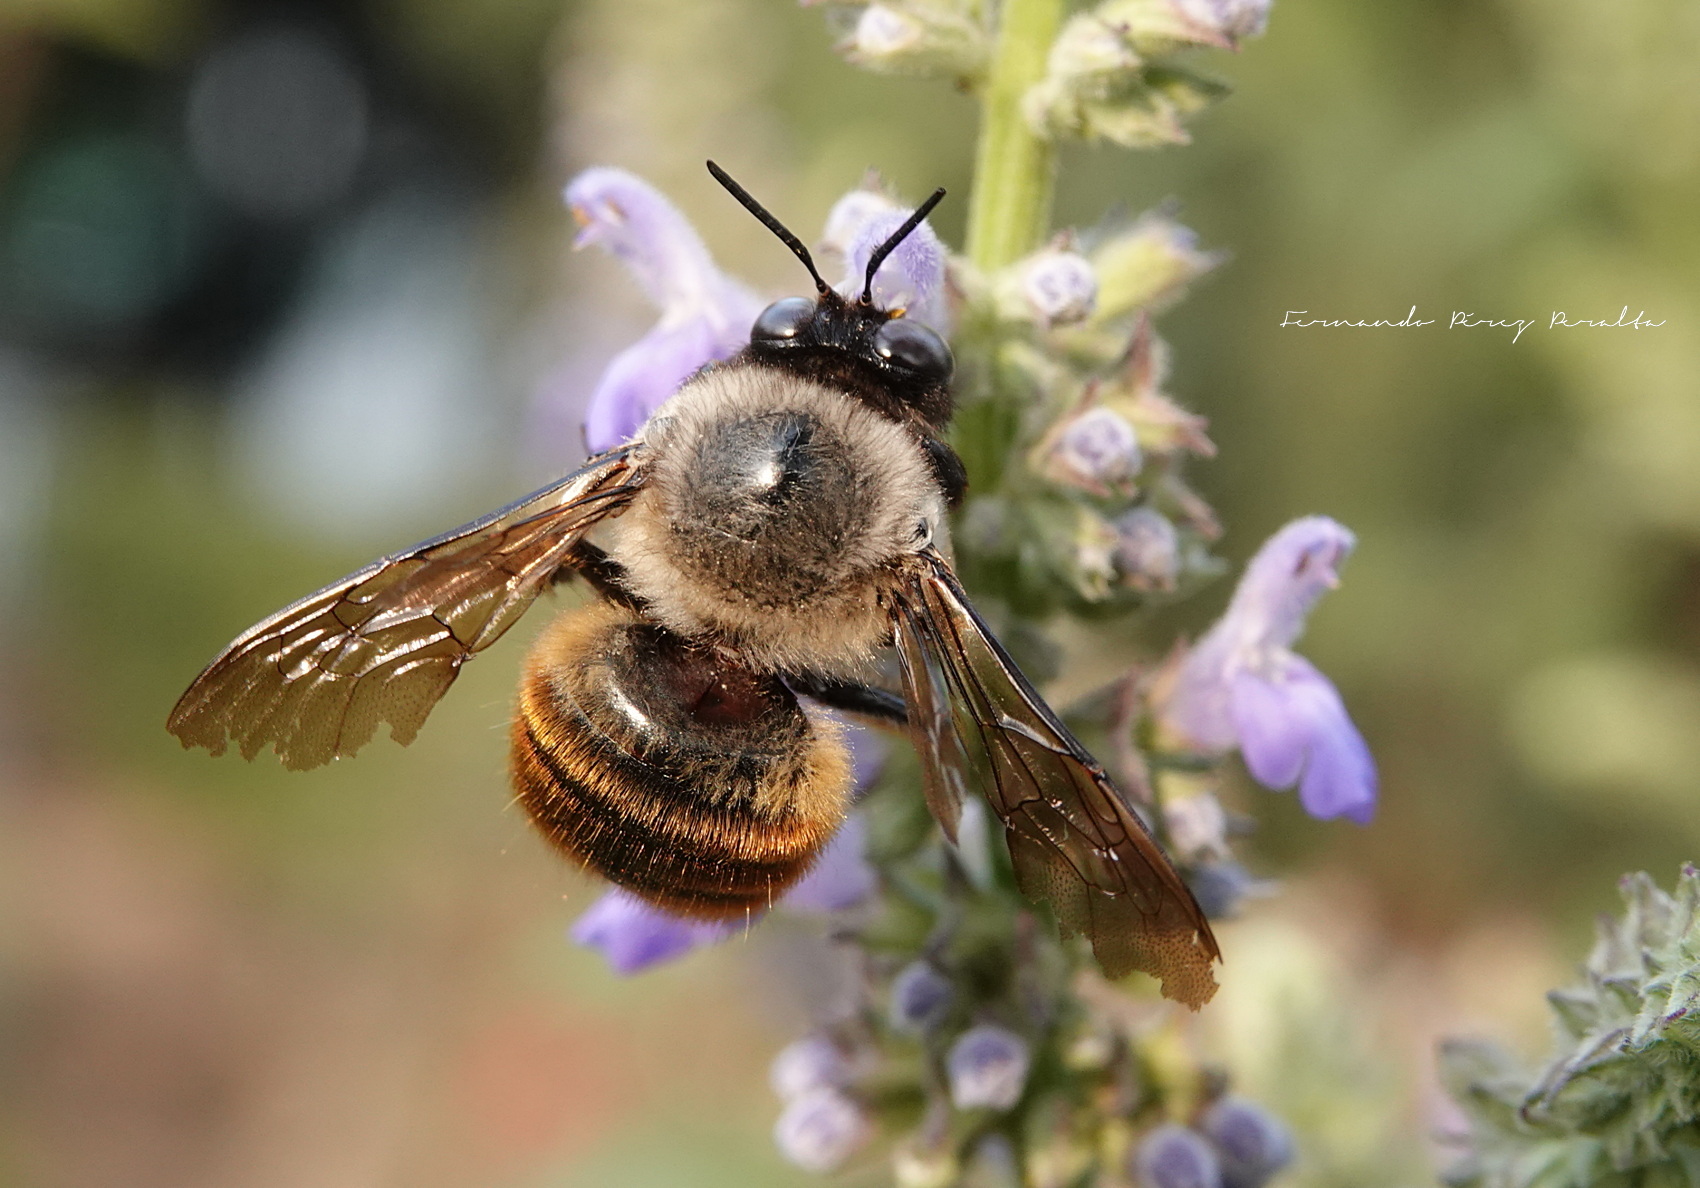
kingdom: Animalia
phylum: Arthropoda
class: Insecta
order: Hymenoptera
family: Apidae
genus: Xylocopa
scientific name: Xylocopa tabaniformis
